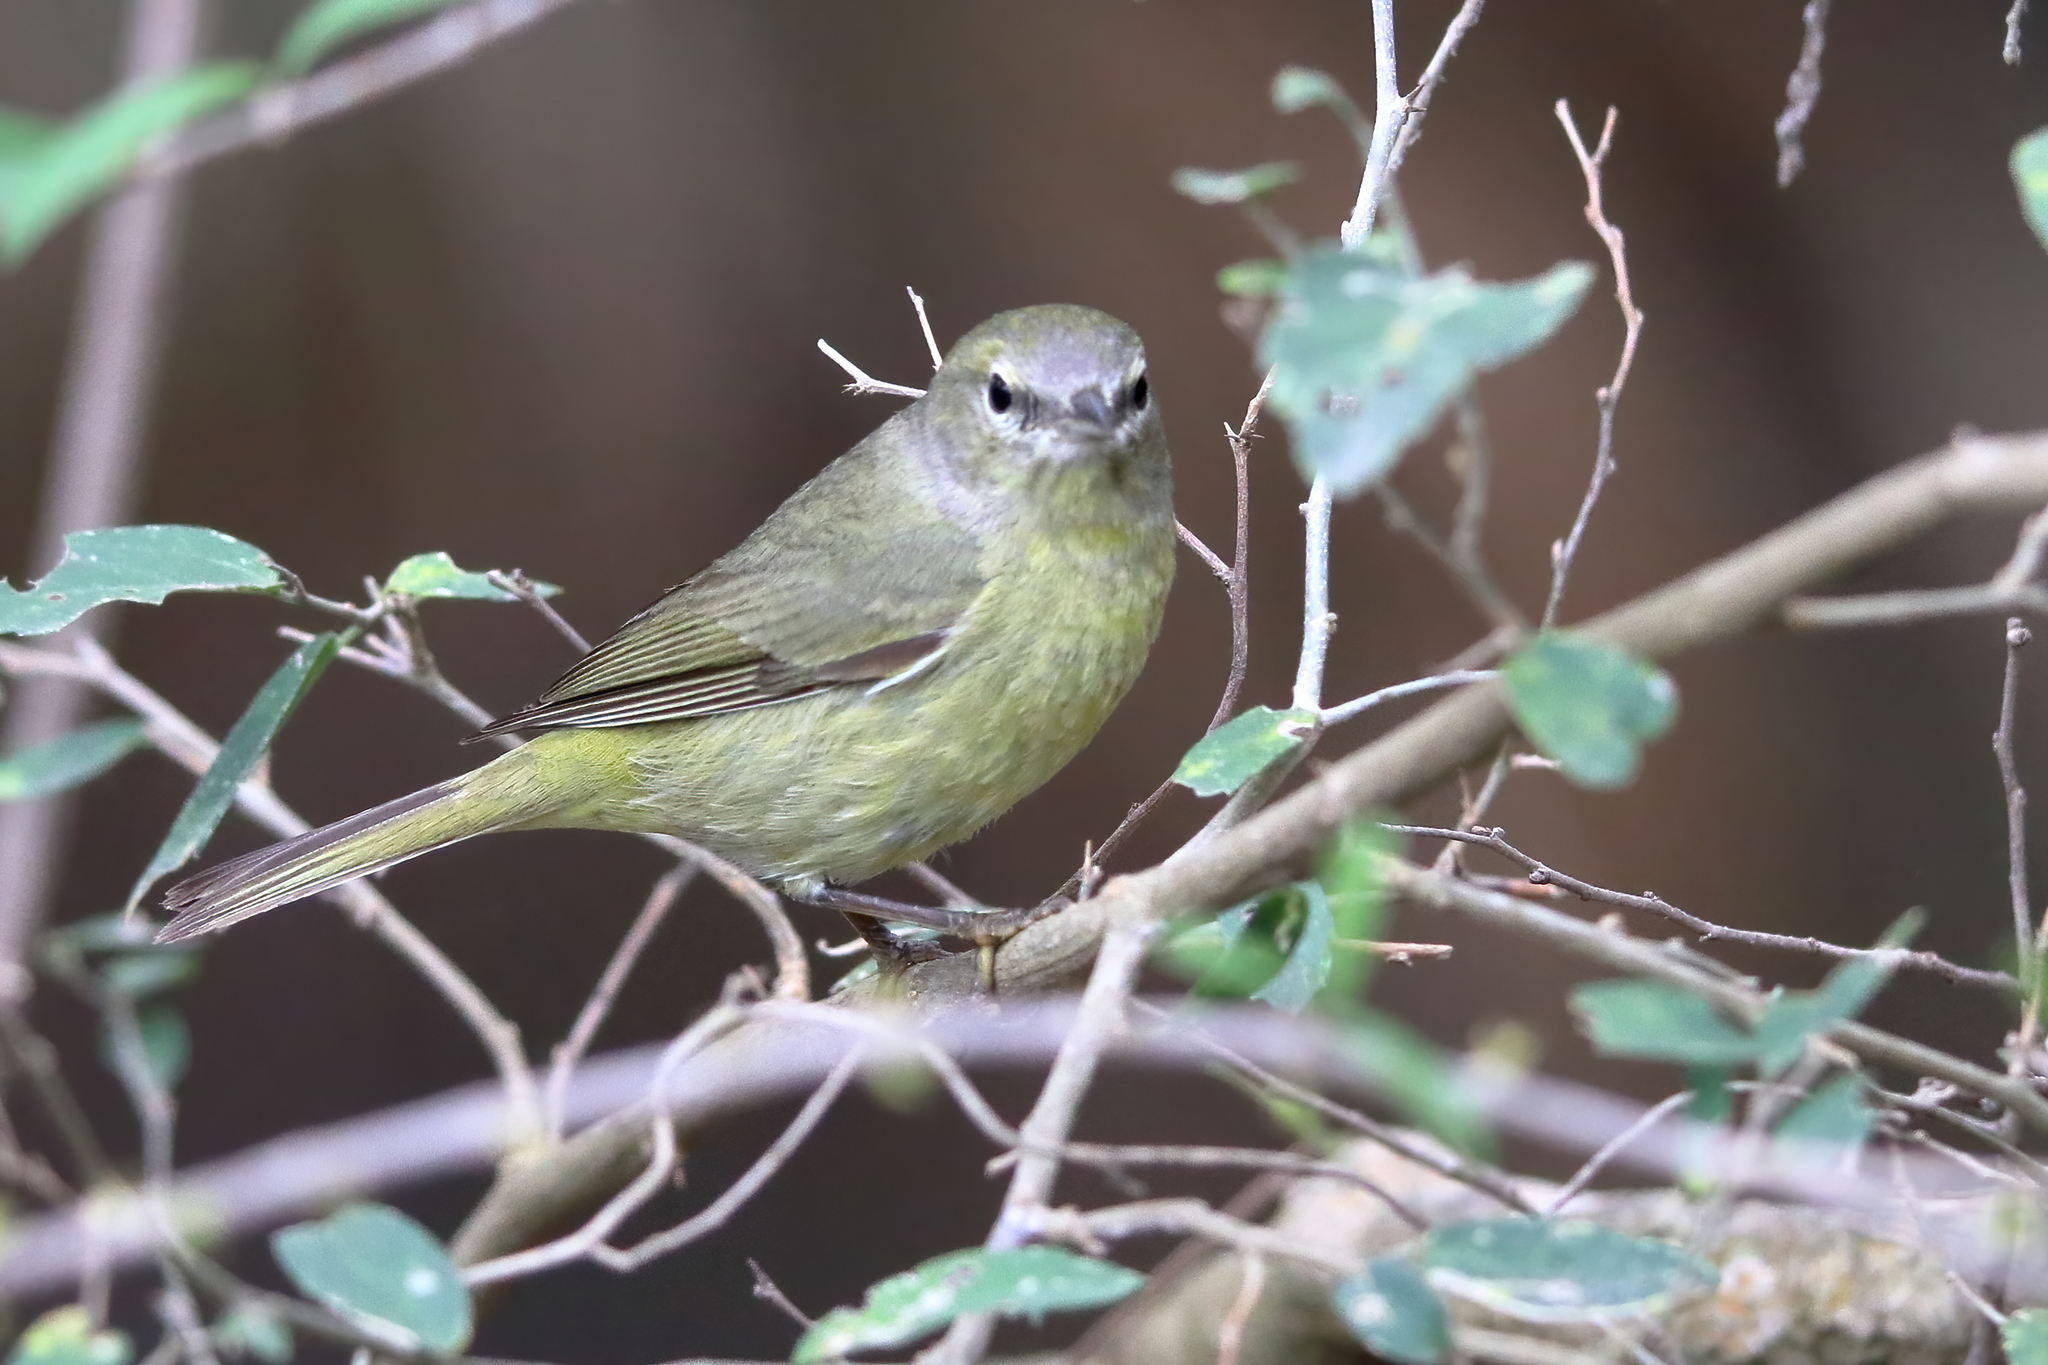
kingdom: Animalia
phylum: Chordata
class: Aves
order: Passeriformes
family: Parulidae
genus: Leiothlypis
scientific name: Leiothlypis celata
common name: Orange-crowned warbler
